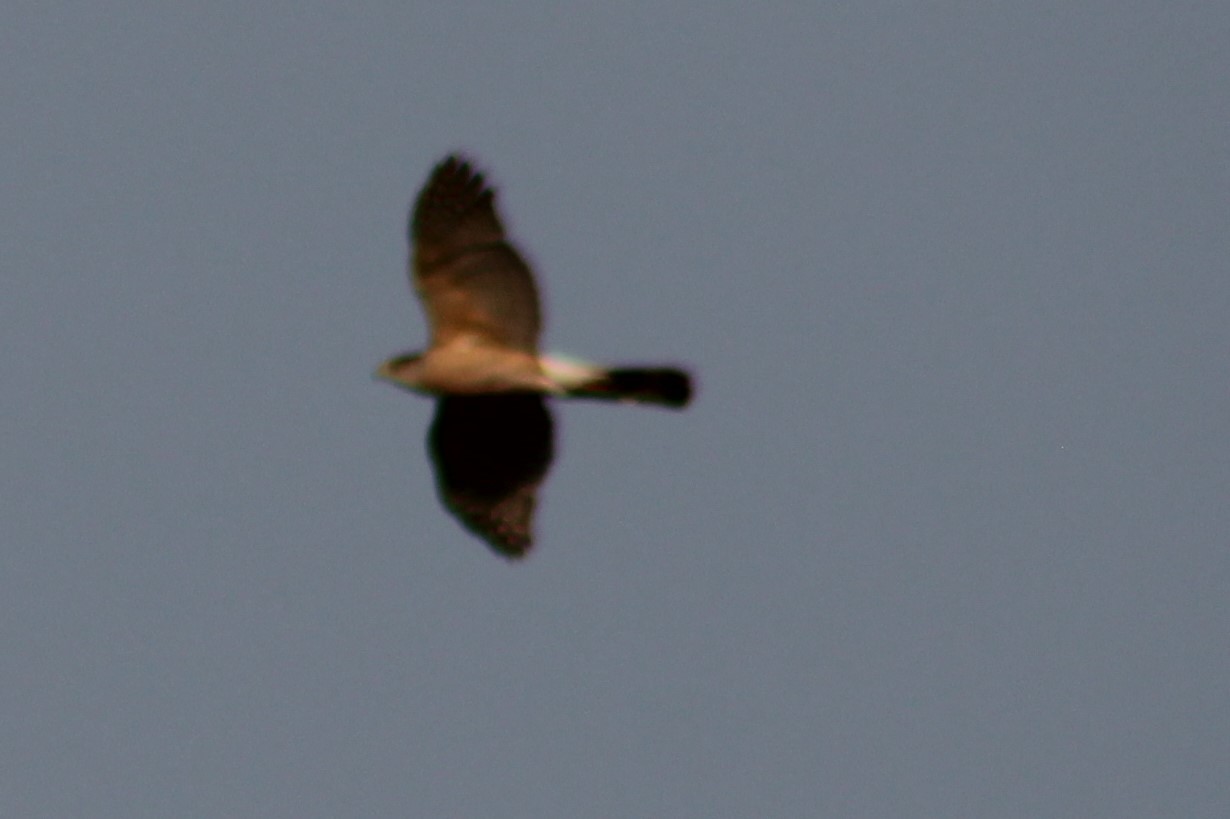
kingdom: Animalia
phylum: Chordata
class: Aves
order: Accipitriformes
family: Accipitridae
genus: Accipiter
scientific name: Accipiter cooperii
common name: Cooper's hawk
